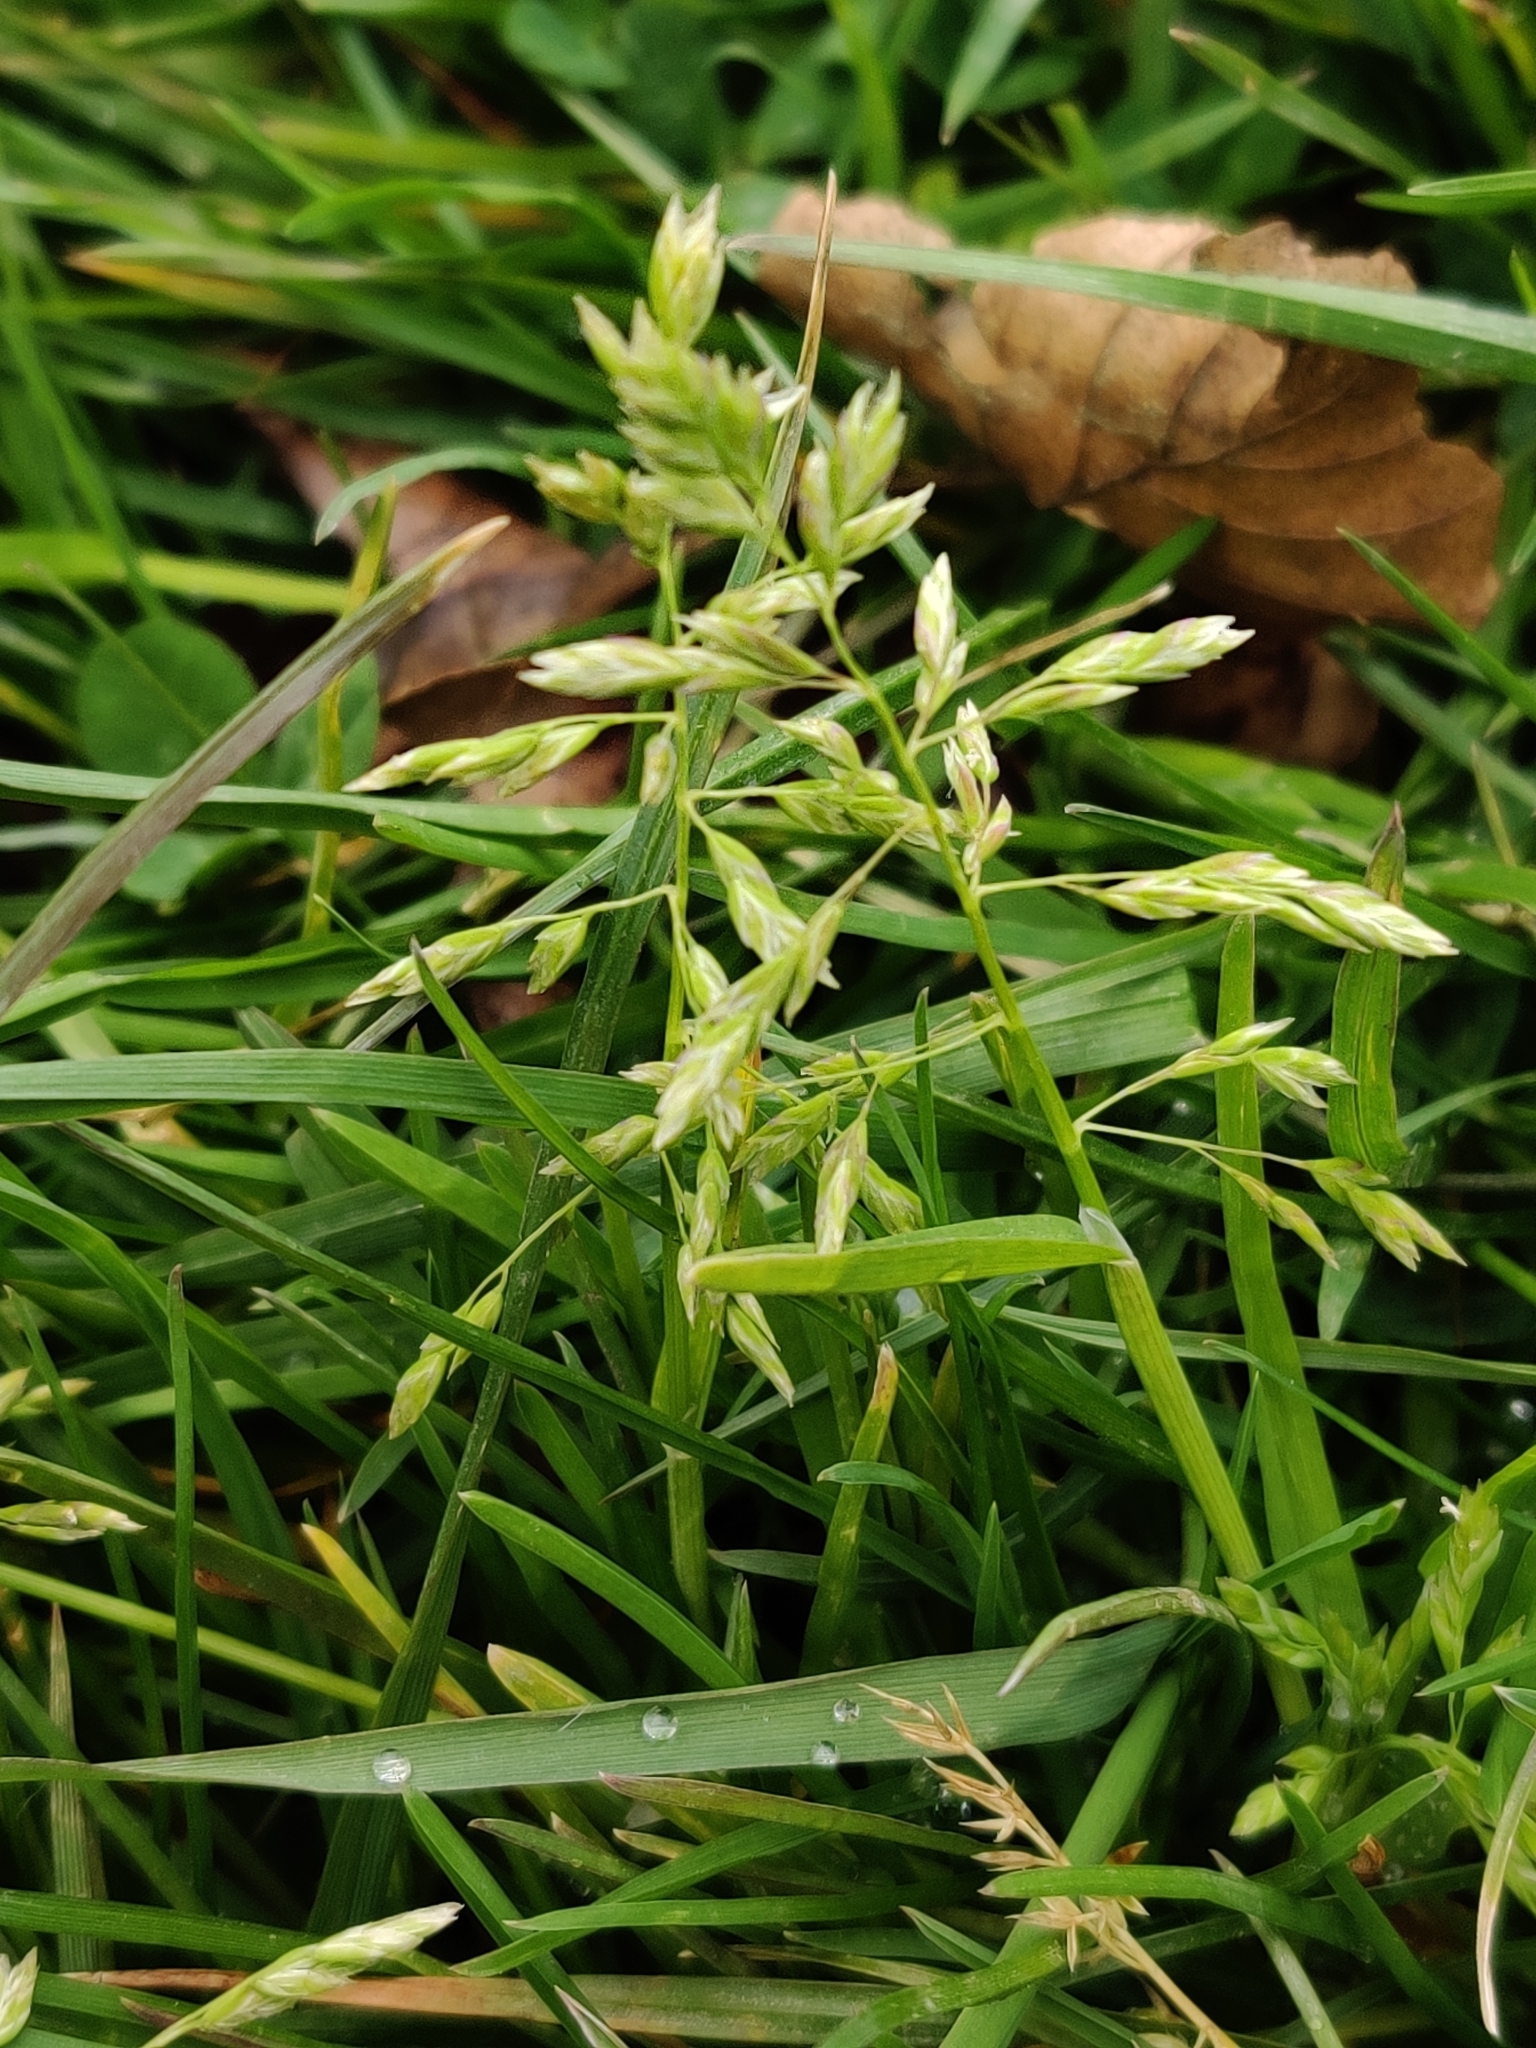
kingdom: Plantae
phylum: Tracheophyta
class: Liliopsida
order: Poales
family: Poaceae
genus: Poa
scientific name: Poa annua
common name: Annual bluegrass
